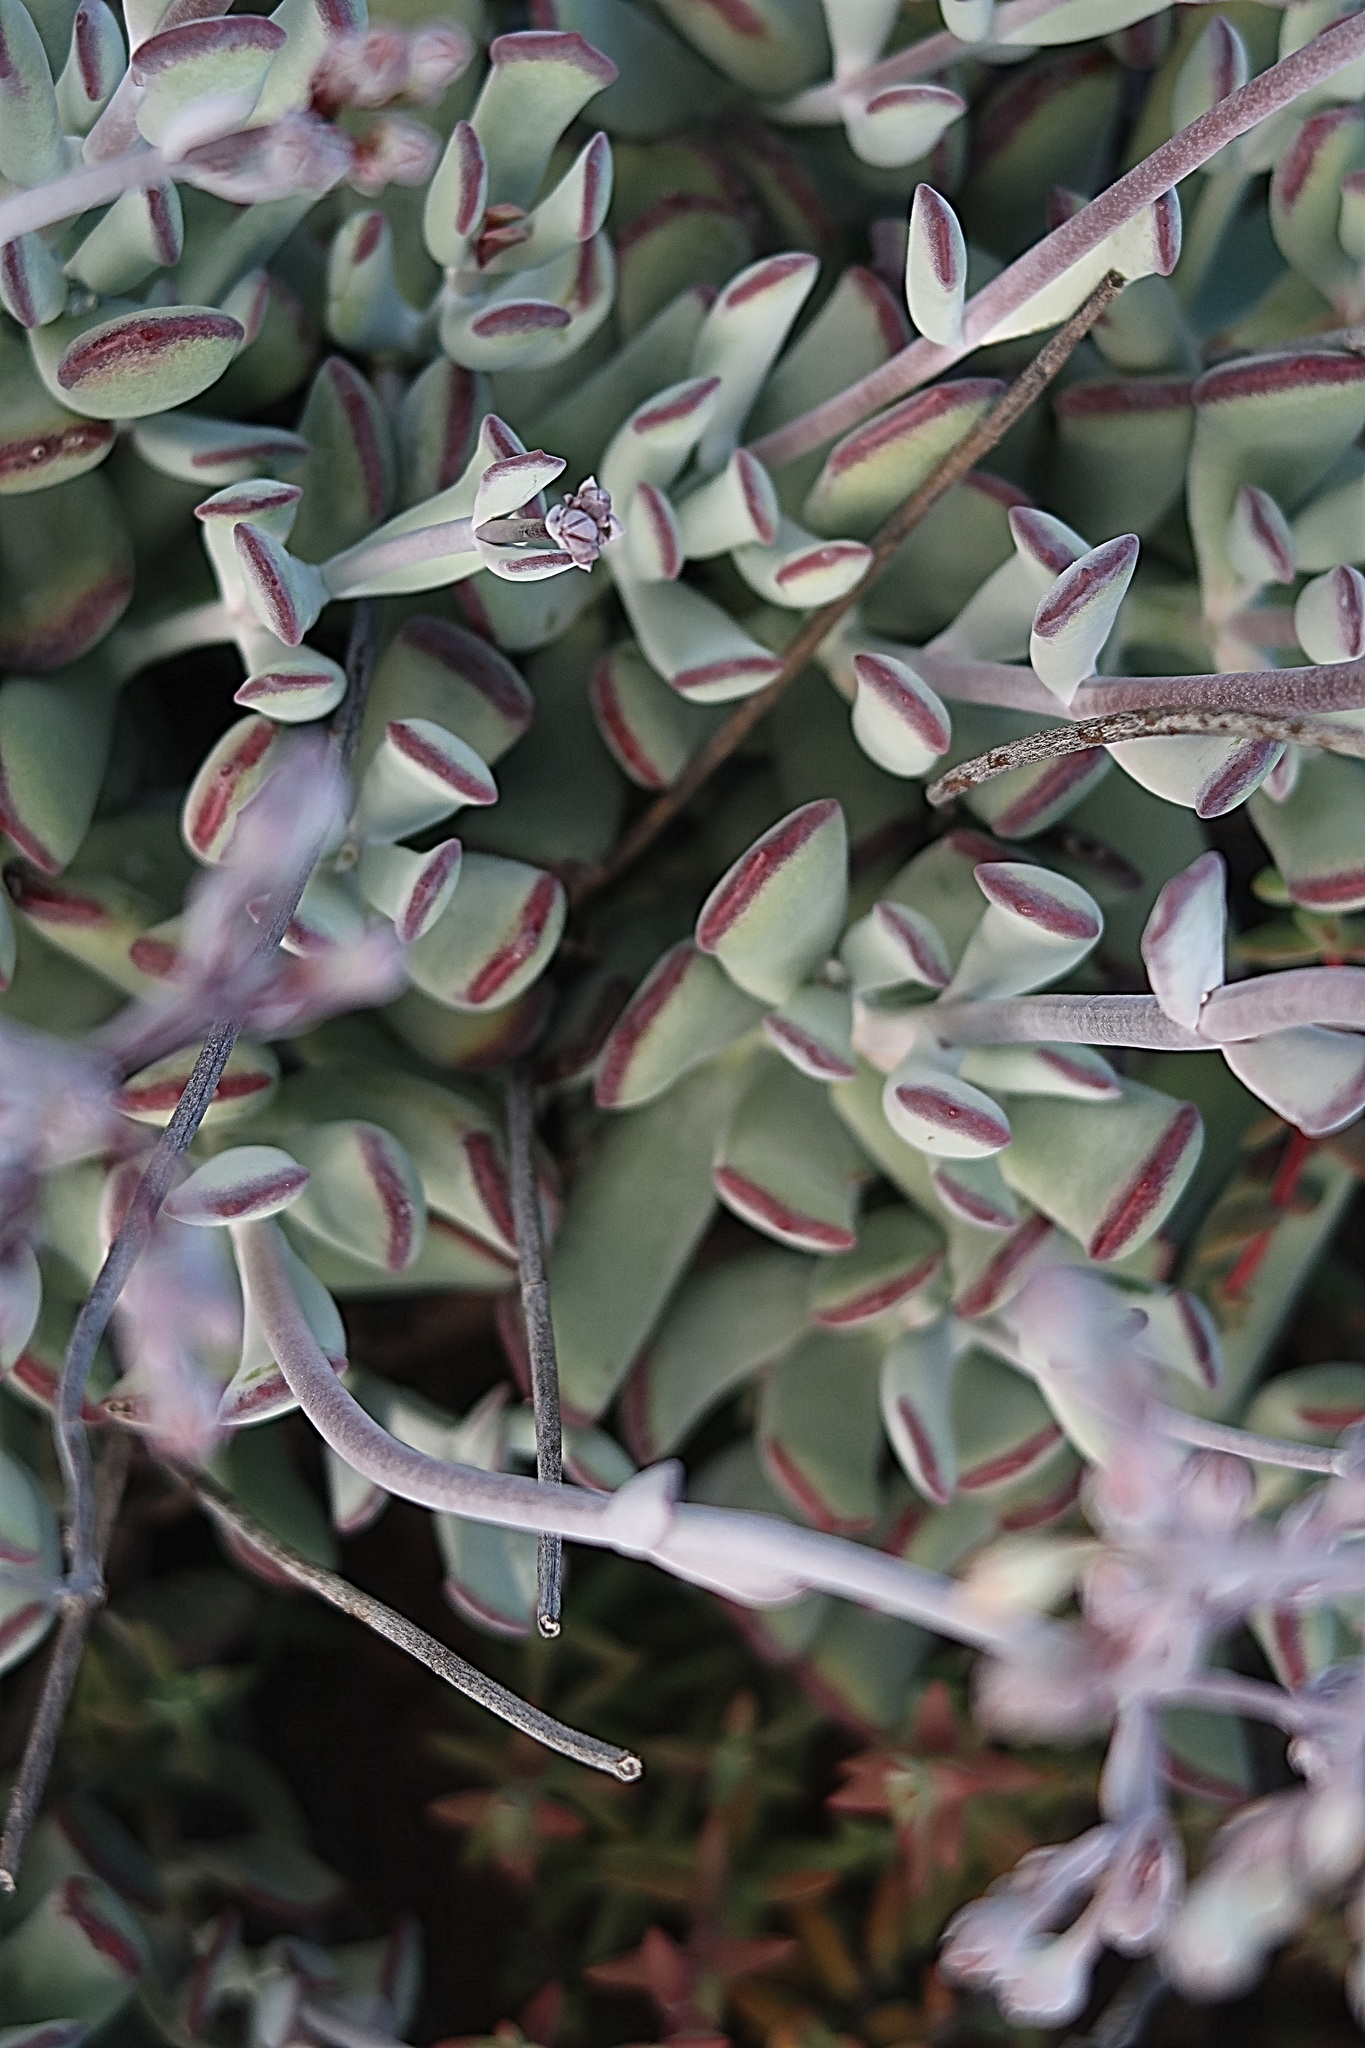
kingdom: Plantae
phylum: Tracheophyta
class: Magnoliopsida
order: Saxifragales
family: Crassulaceae
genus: Cotyledon
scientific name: Cotyledon orbiculata
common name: Pig's ear
